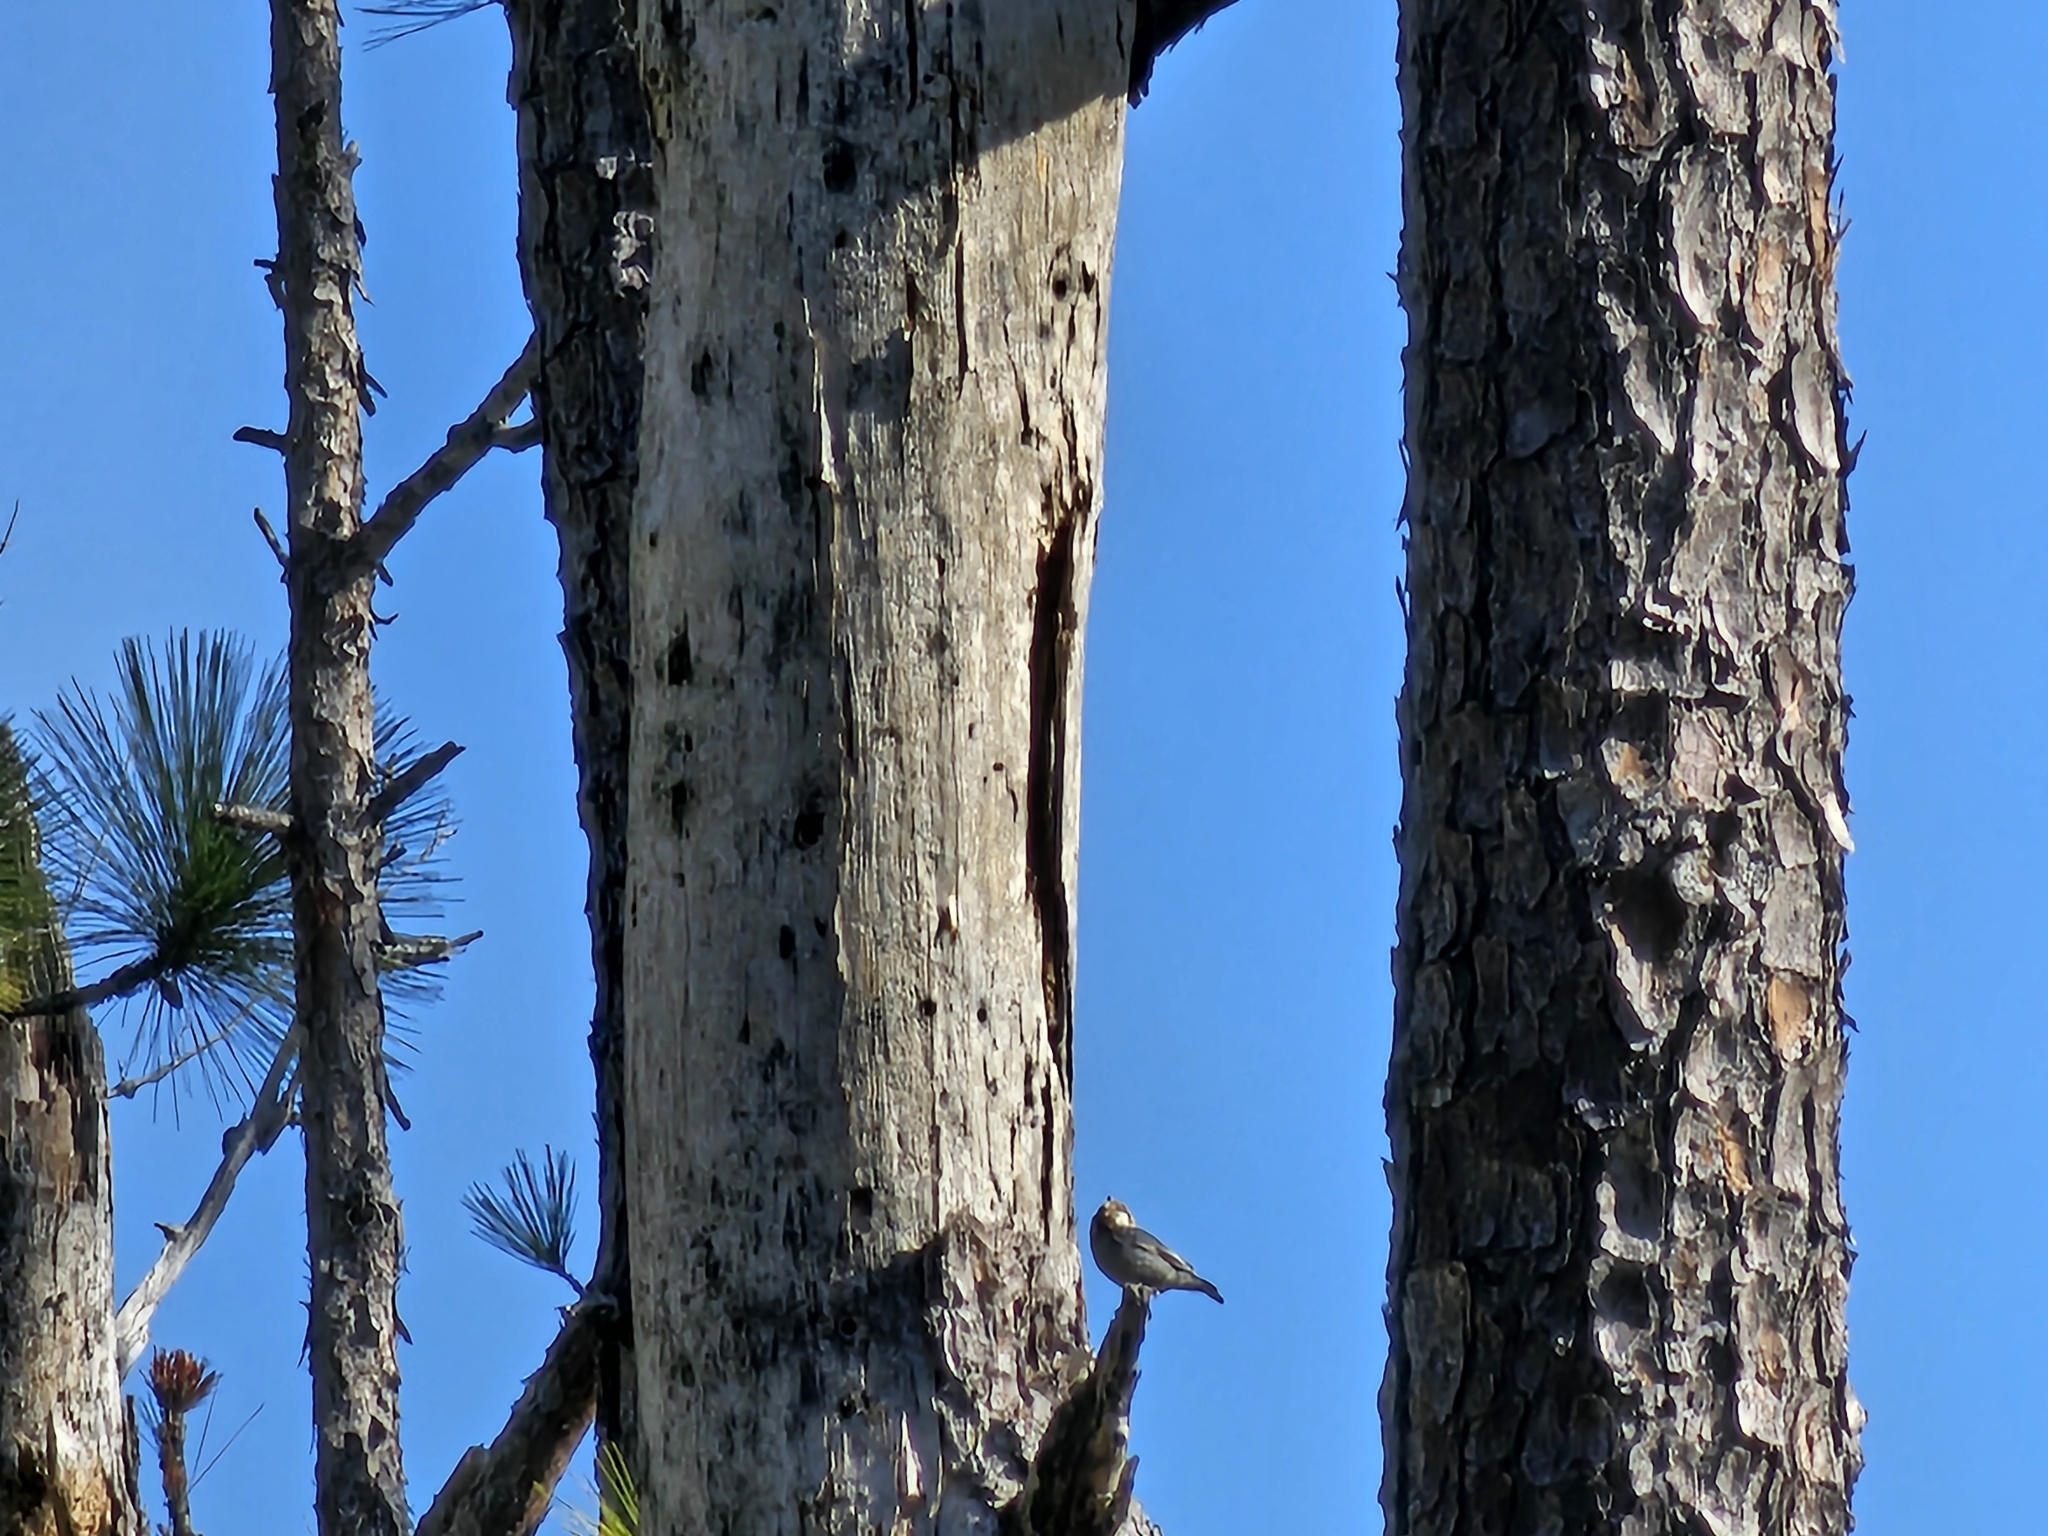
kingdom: Animalia
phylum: Chordata
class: Aves
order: Passeriformes
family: Sittidae
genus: Sitta
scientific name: Sitta pusilla
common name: Brown-headed nuthatch
